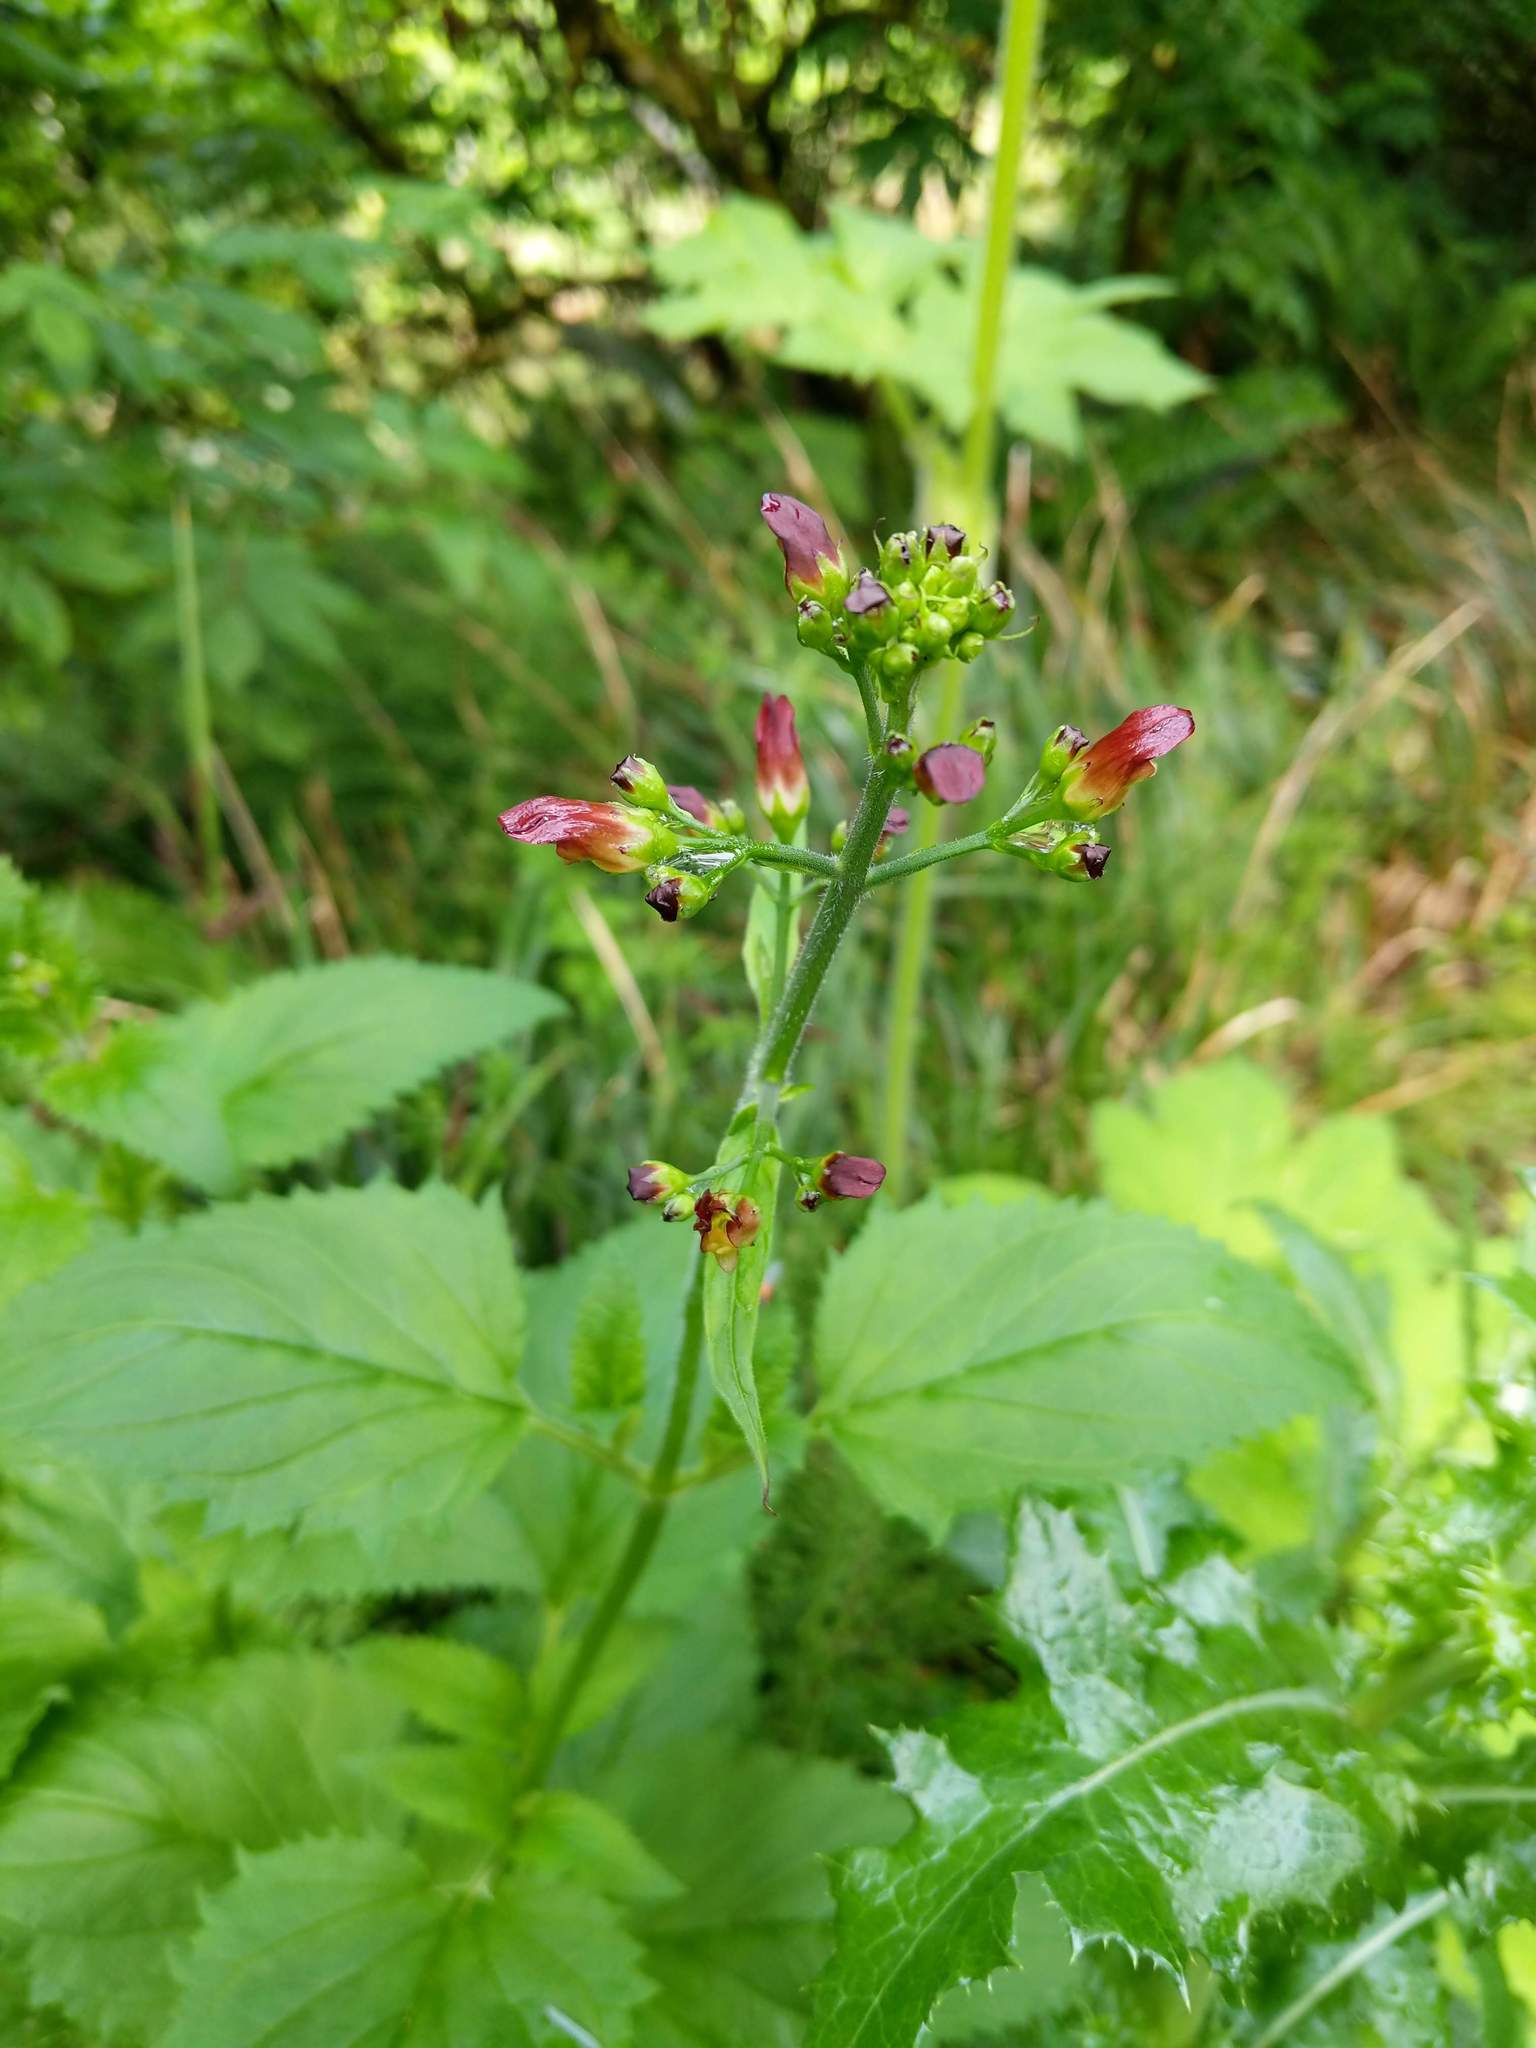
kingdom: Plantae
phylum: Tracheophyta
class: Magnoliopsida
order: Lamiales
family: Scrophulariaceae
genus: Scrophularia
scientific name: Scrophularia californica
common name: California figwort
